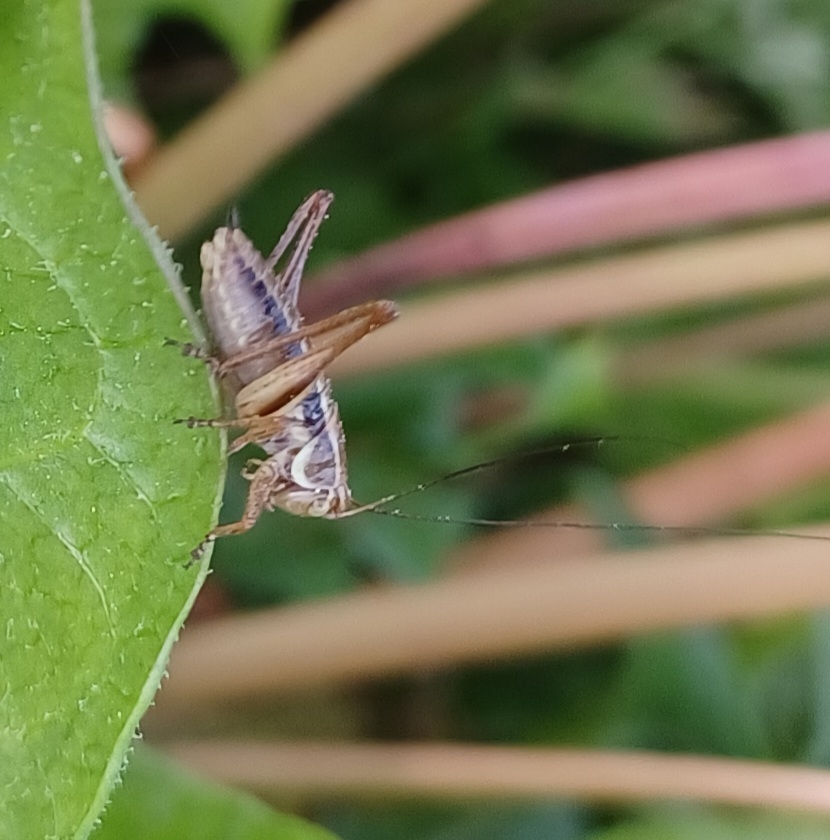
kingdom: Animalia
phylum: Arthropoda
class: Insecta
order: Orthoptera
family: Tettigoniidae
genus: Roeseliana
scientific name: Roeseliana roeselii
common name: Roesel's bush cricket
